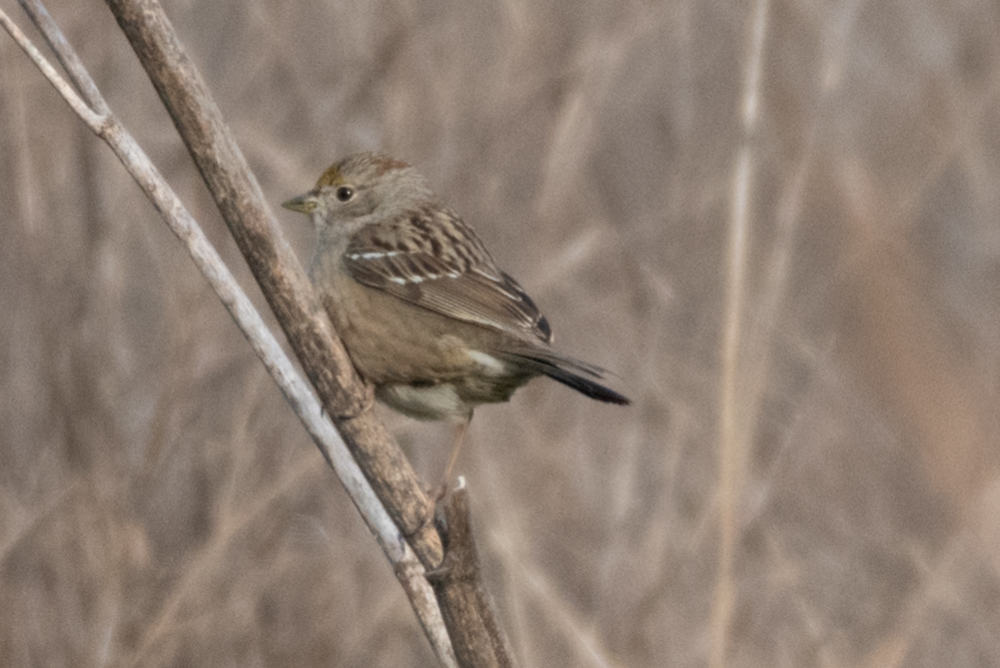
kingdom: Animalia
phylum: Chordata
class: Aves
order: Passeriformes
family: Passerellidae
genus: Zonotrichia
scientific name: Zonotrichia atricapilla
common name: Golden-crowned sparrow
